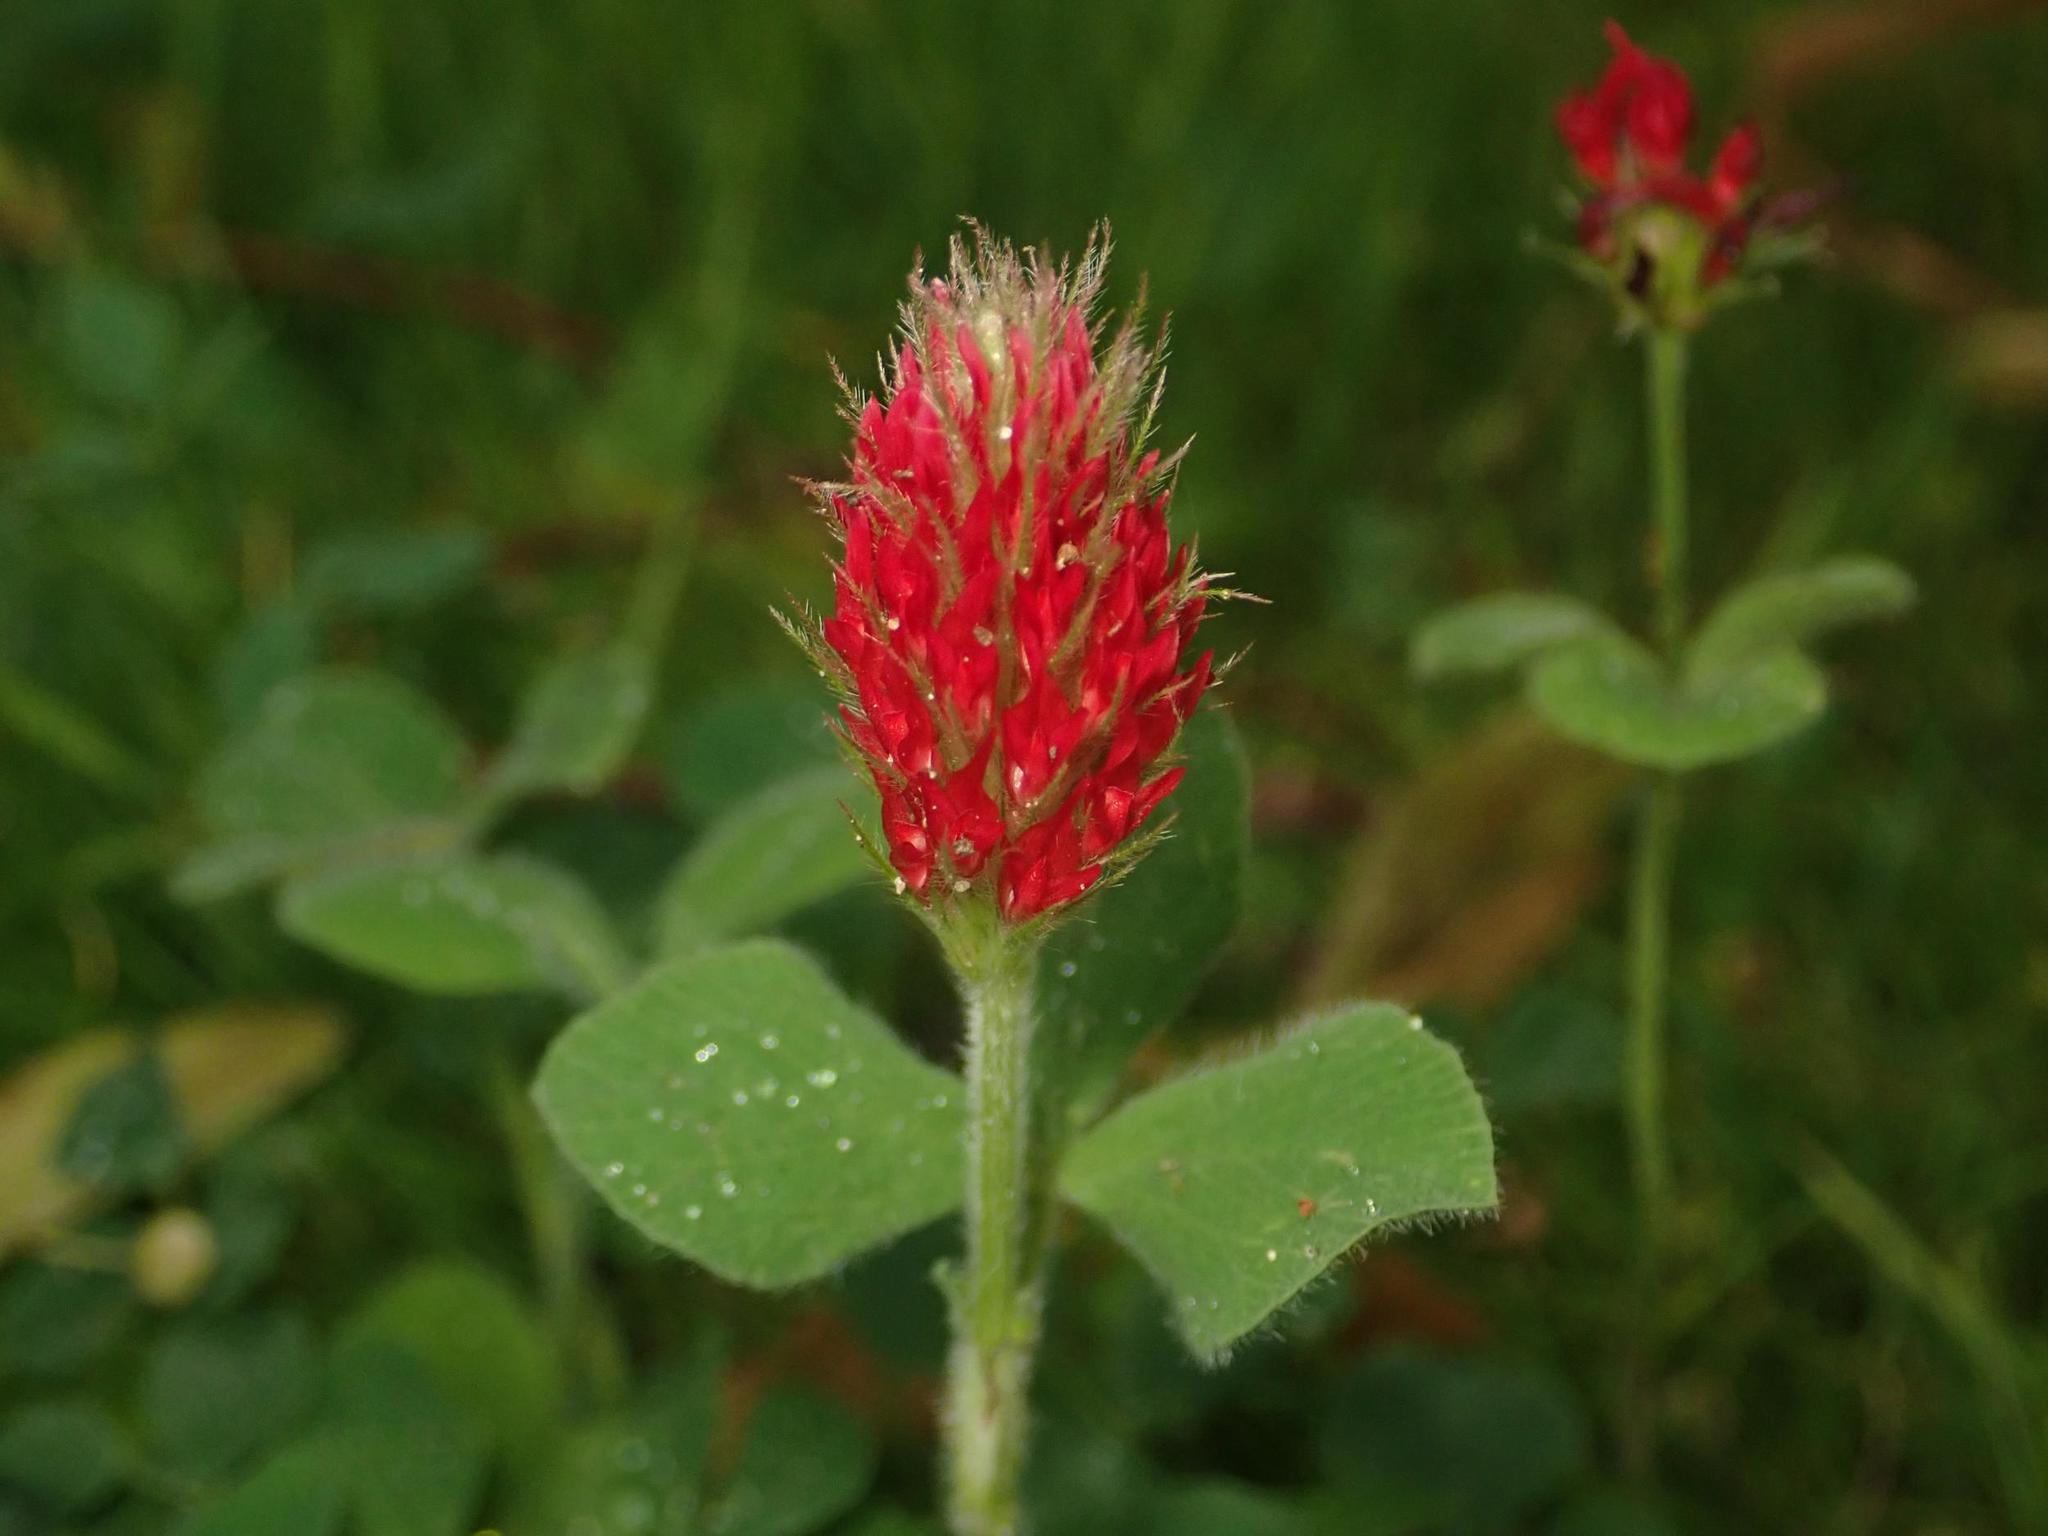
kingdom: Plantae
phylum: Tracheophyta
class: Magnoliopsida
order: Fabales
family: Fabaceae
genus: Trifolium
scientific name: Trifolium incarnatum
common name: Crimson clover
